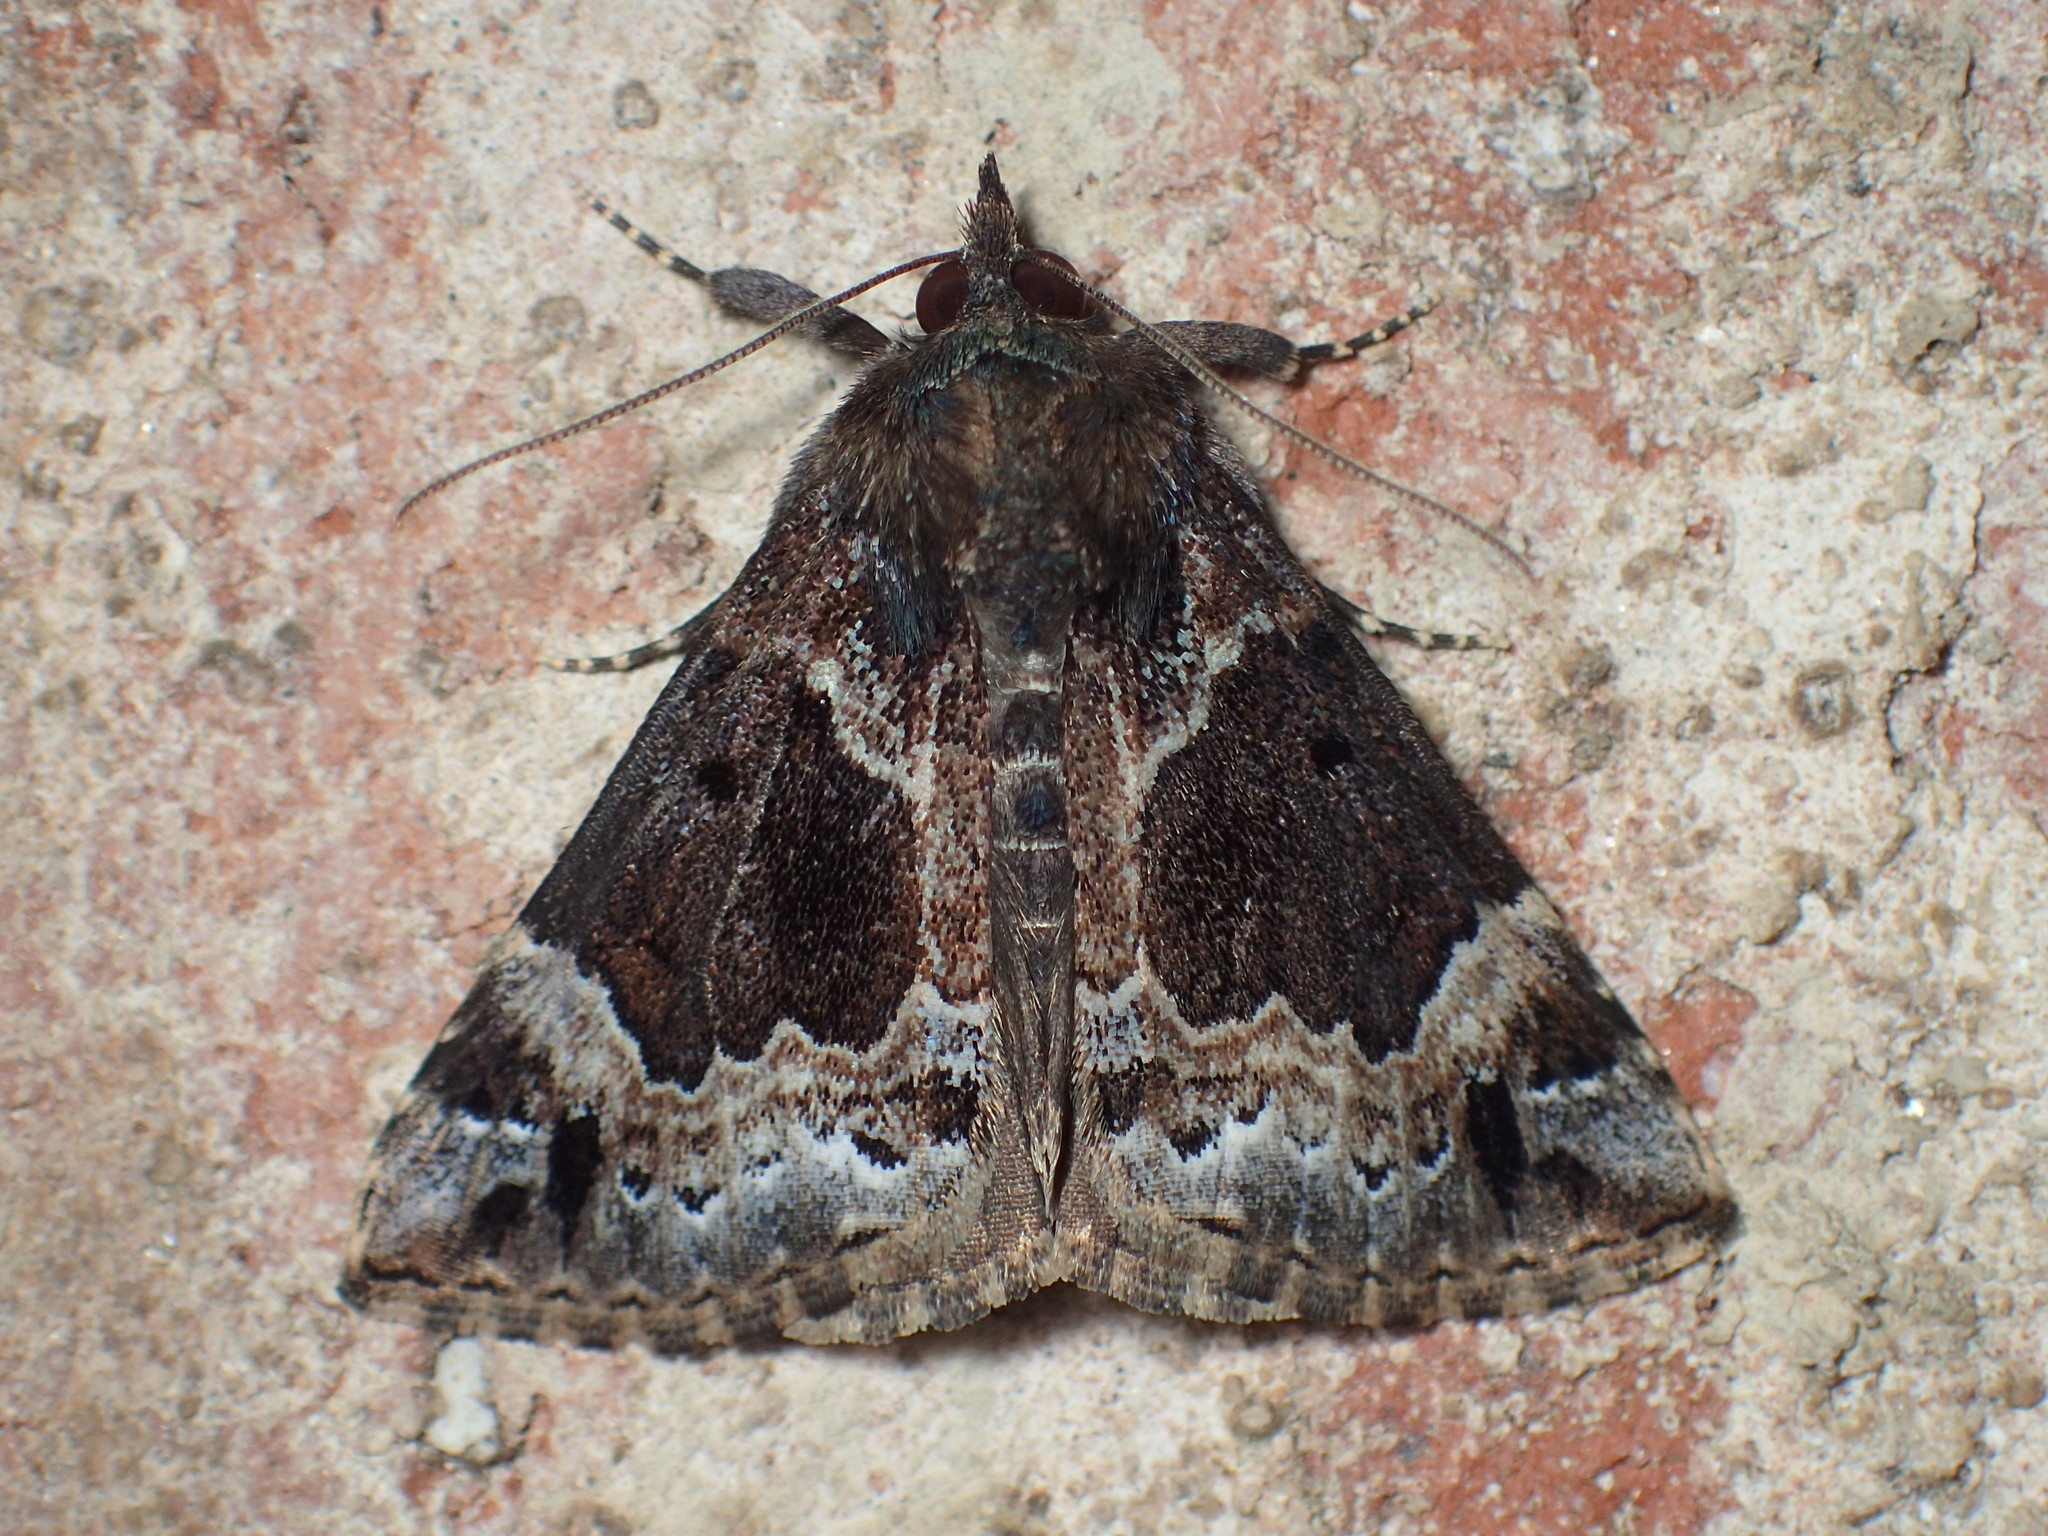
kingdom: Animalia
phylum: Arthropoda
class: Insecta
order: Lepidoptera
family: Erebidae
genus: Hypena
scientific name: Hypena palparia
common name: Mottled bomolocha moth
